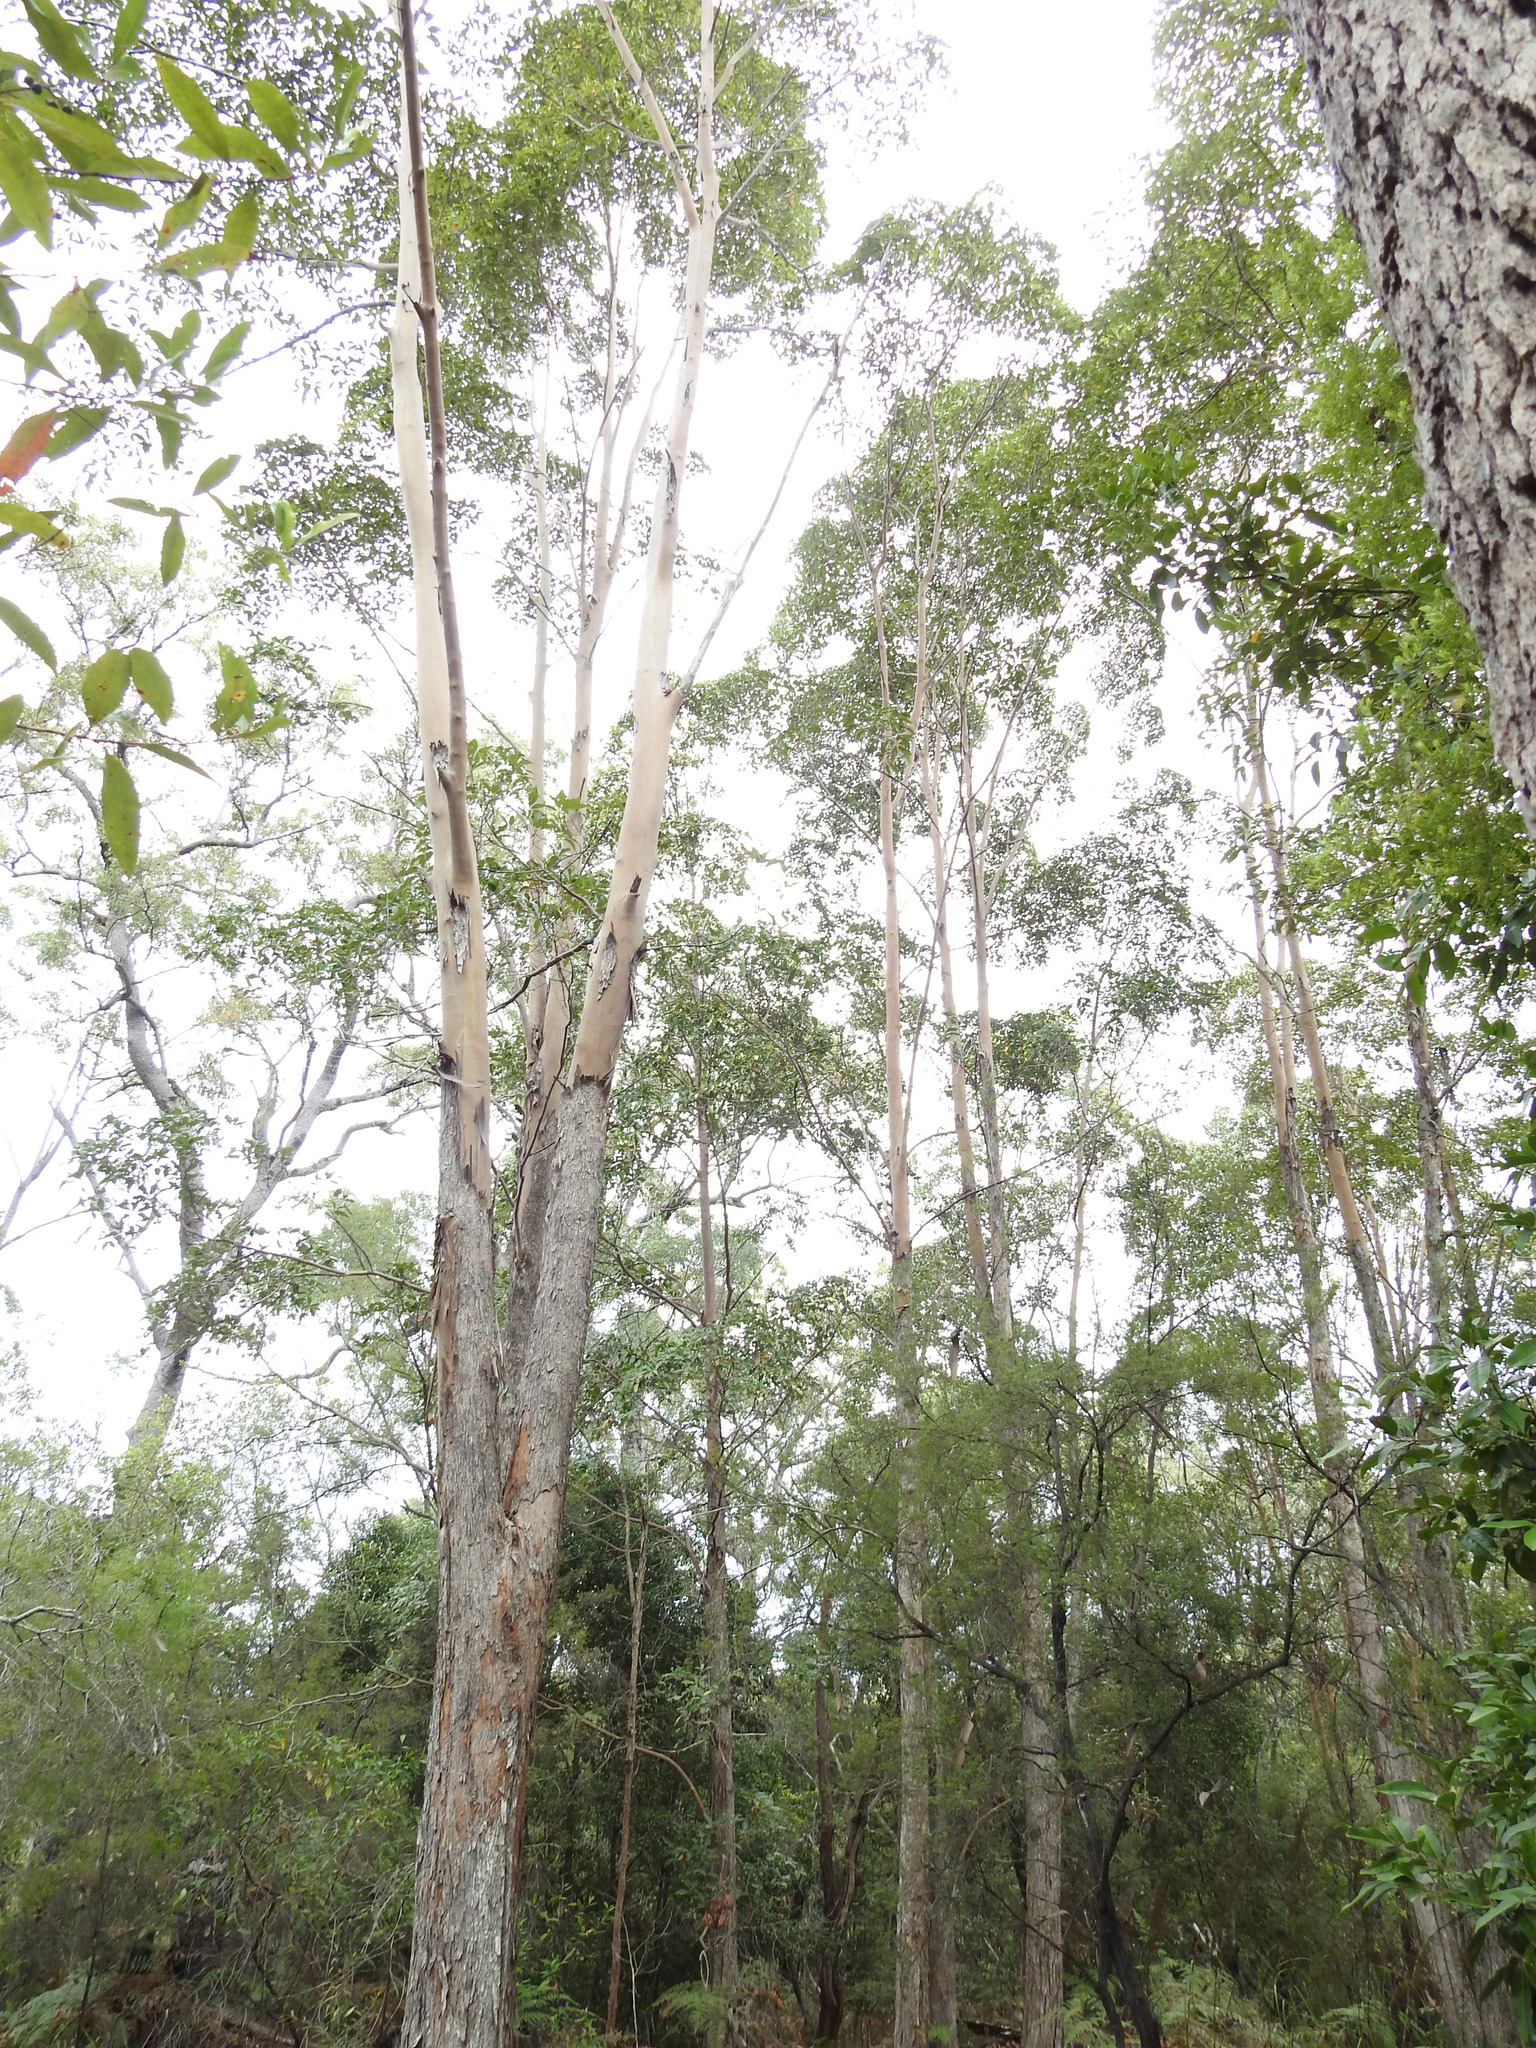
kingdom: Plantae
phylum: Tracheophyta
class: Magnoliopsida
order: Myrtales
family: Myrtaceae
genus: Lophostemon
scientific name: Lophostemon confertus
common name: Brisbane box
